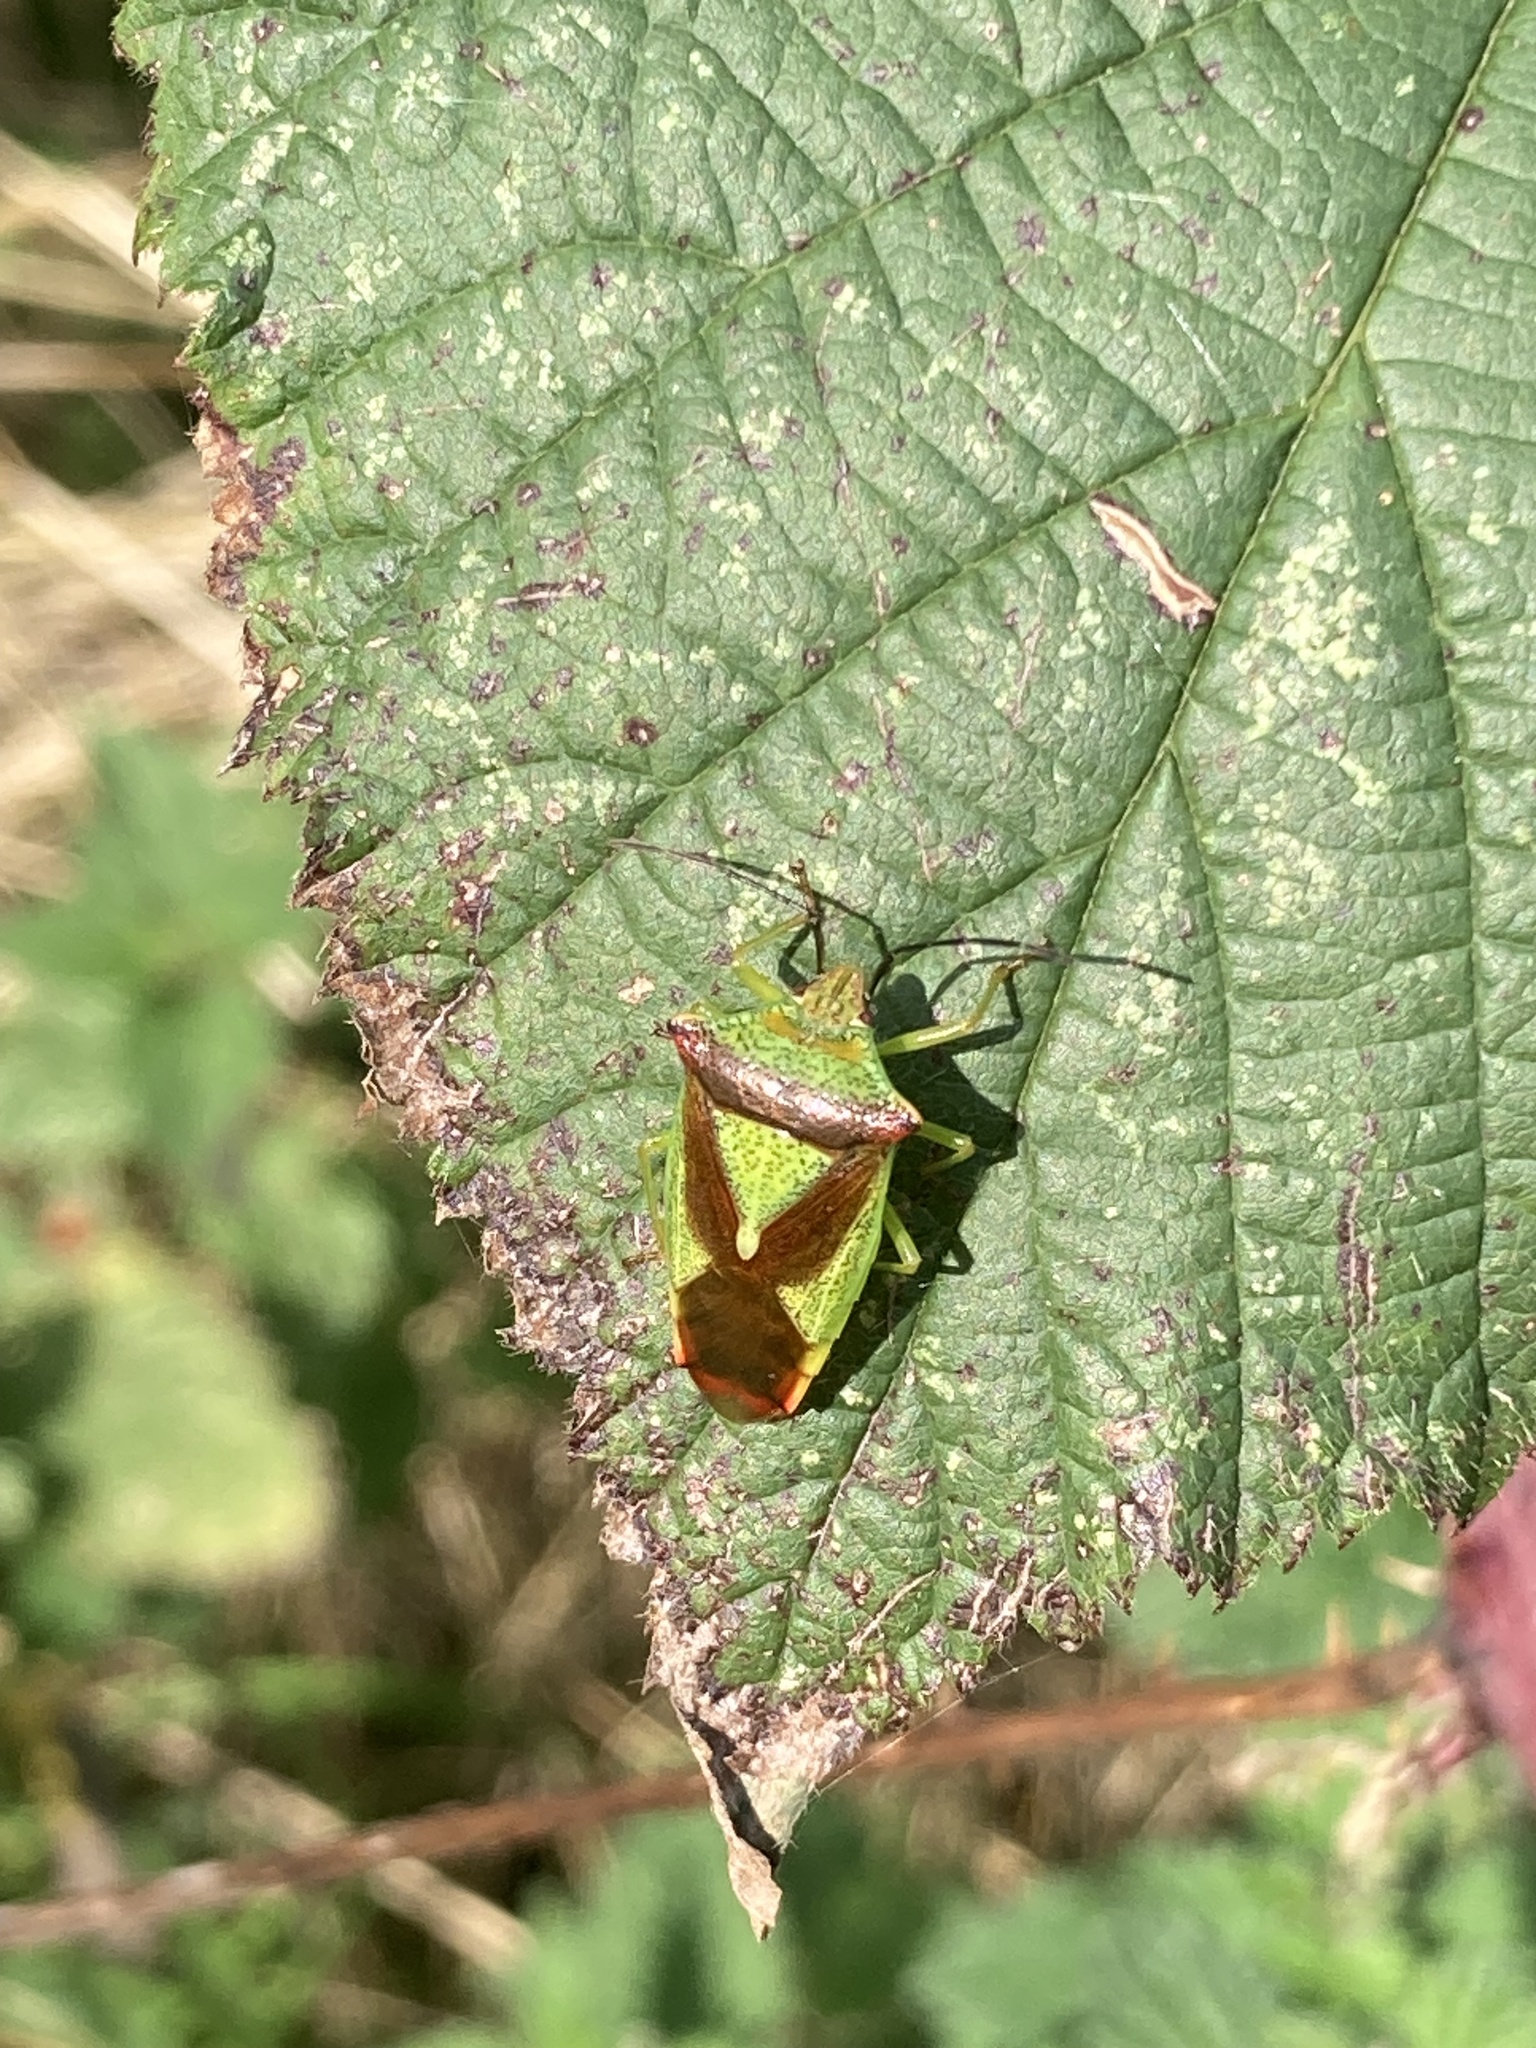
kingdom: Animalia
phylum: Arthropoda
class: Insecta
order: Hemiptera
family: Acanthosomatidae
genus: Acanthosoma
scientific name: Acanthosoma haemorrhoidale
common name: Hawthorn shieldbug
